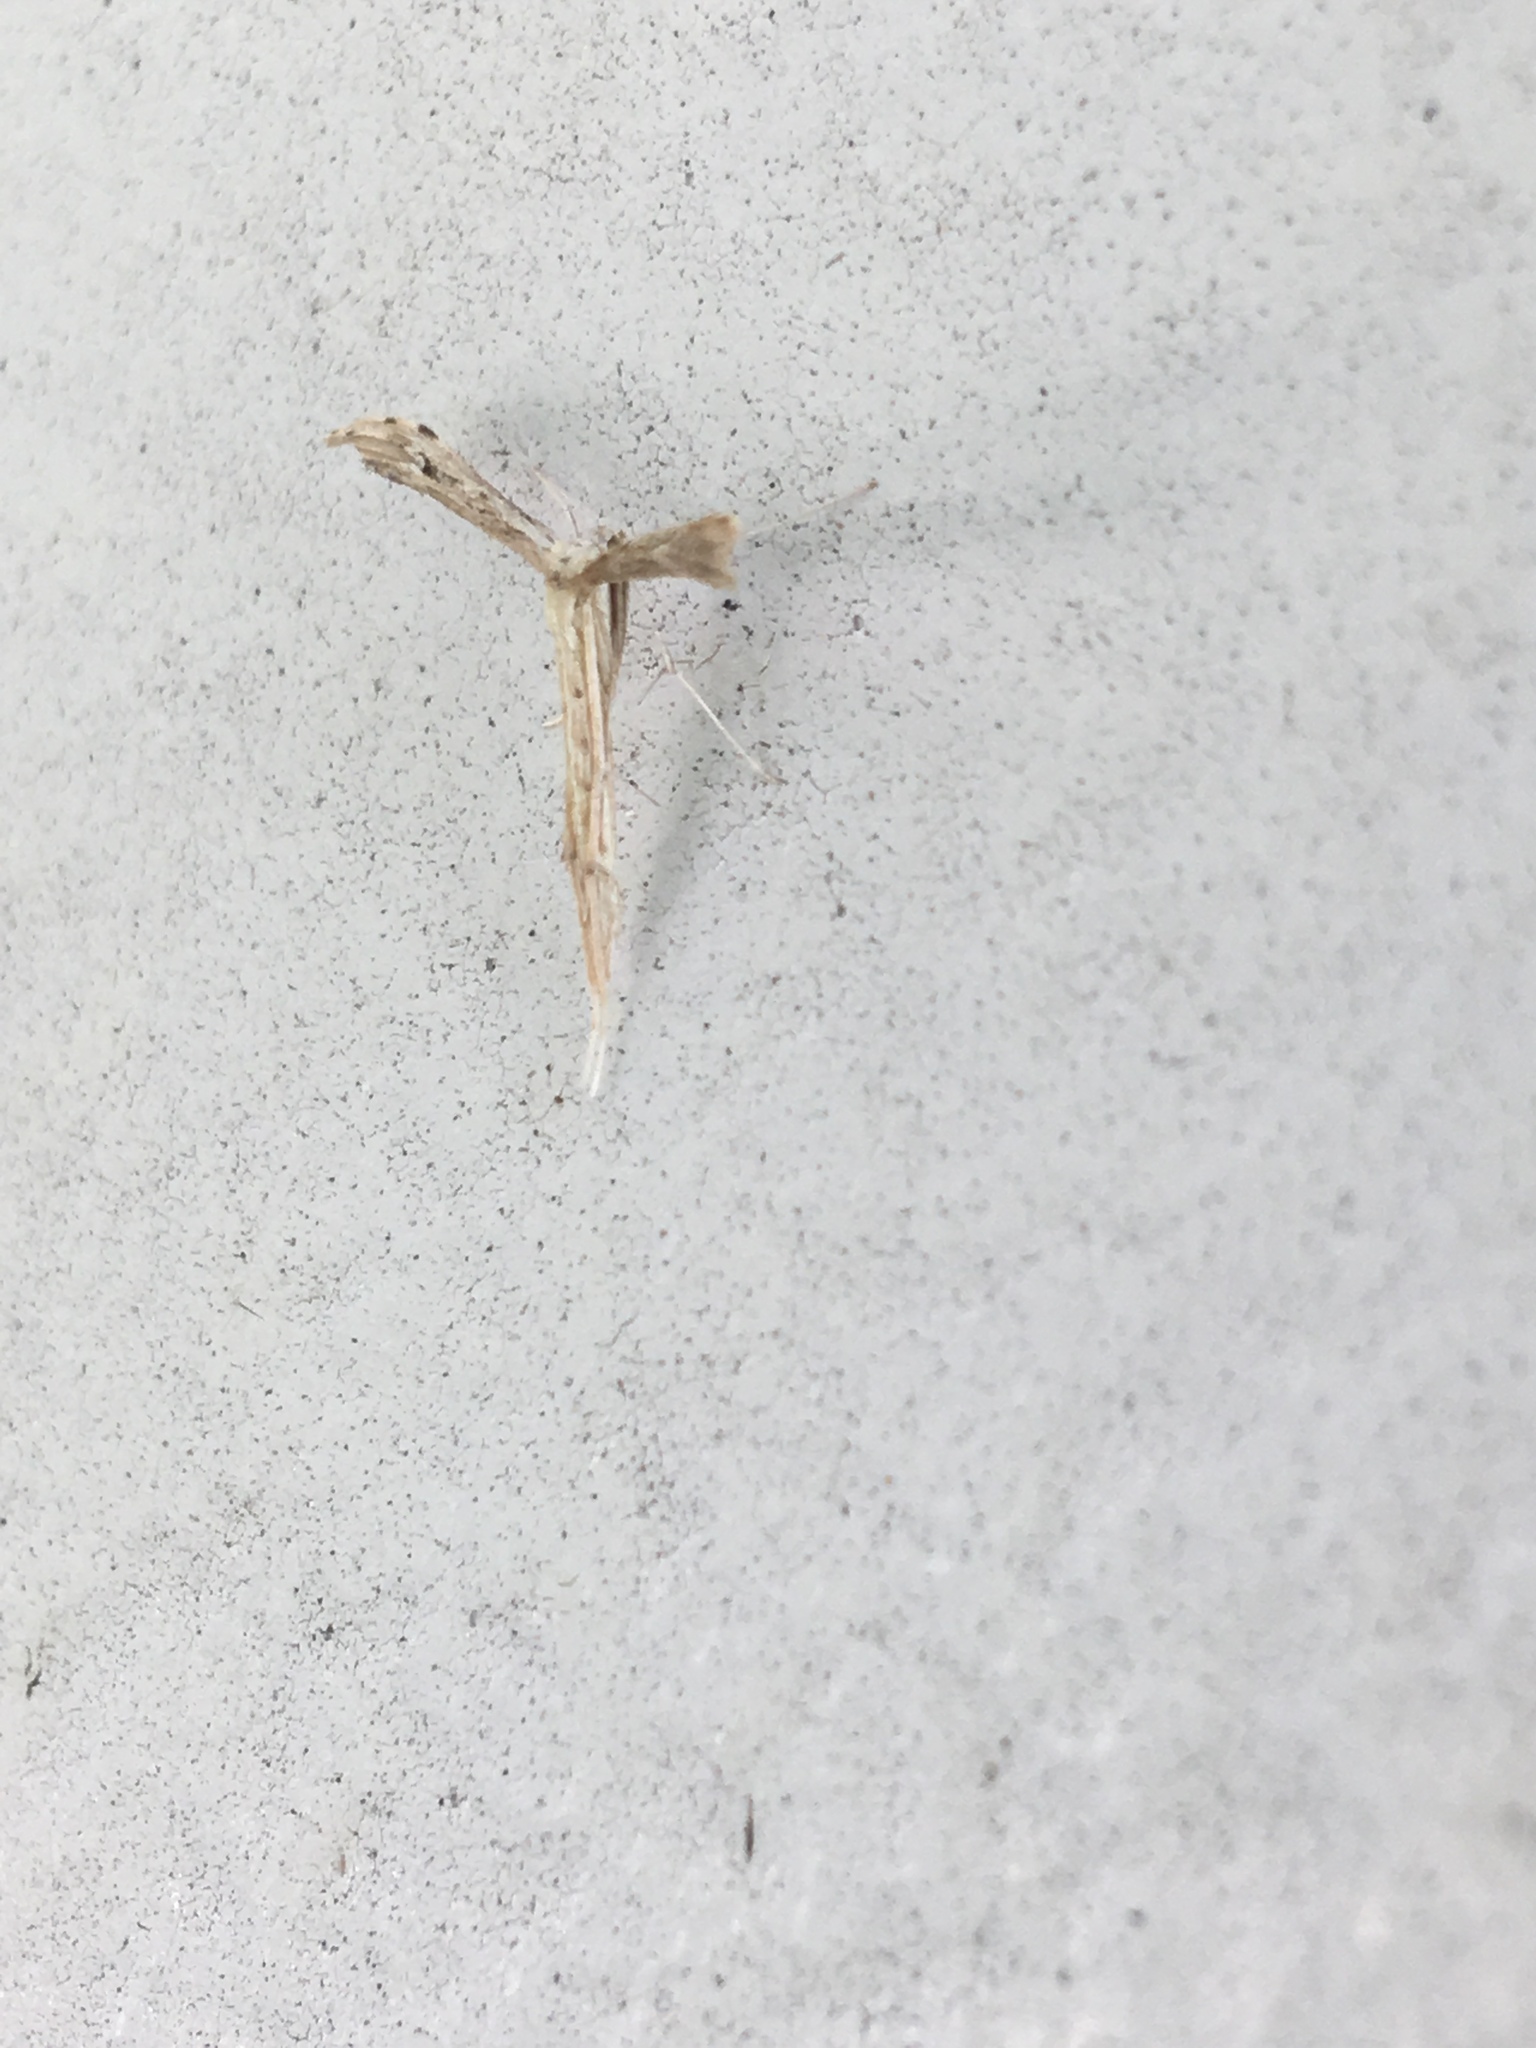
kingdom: Animalia
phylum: Arthropoda
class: Insecta
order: Lepidoptera
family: Pterophoridae
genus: Pselnophorus
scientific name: Pselnophorus belfragei
